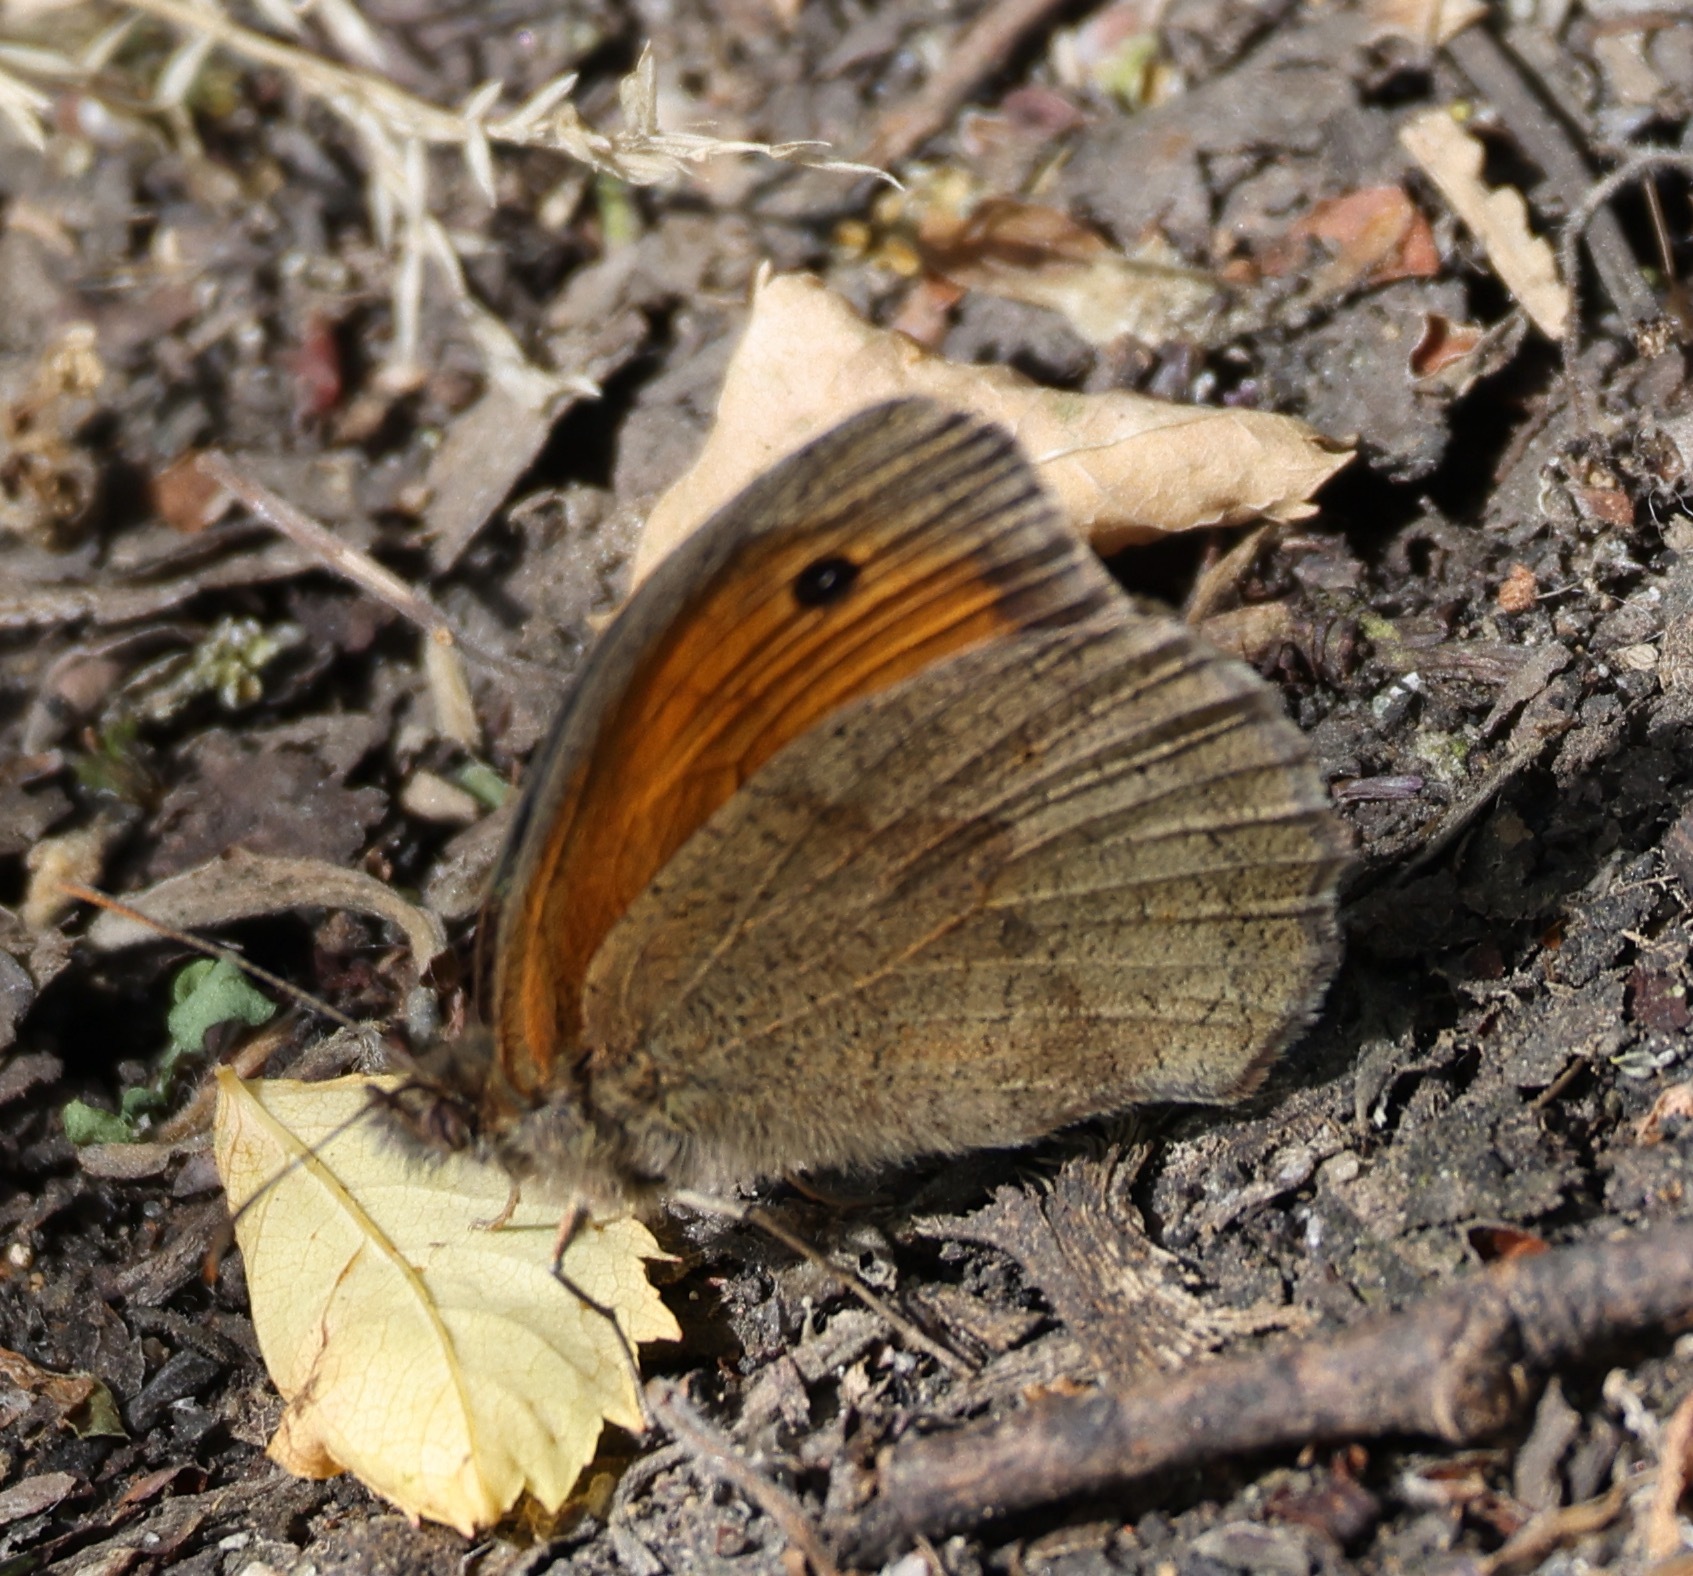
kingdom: Animalia
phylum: Arthropoda
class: Insecta
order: Lepidoptera
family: Nymphalidae
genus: Maniola
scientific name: Maniola jurtina
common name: Meadow brown
